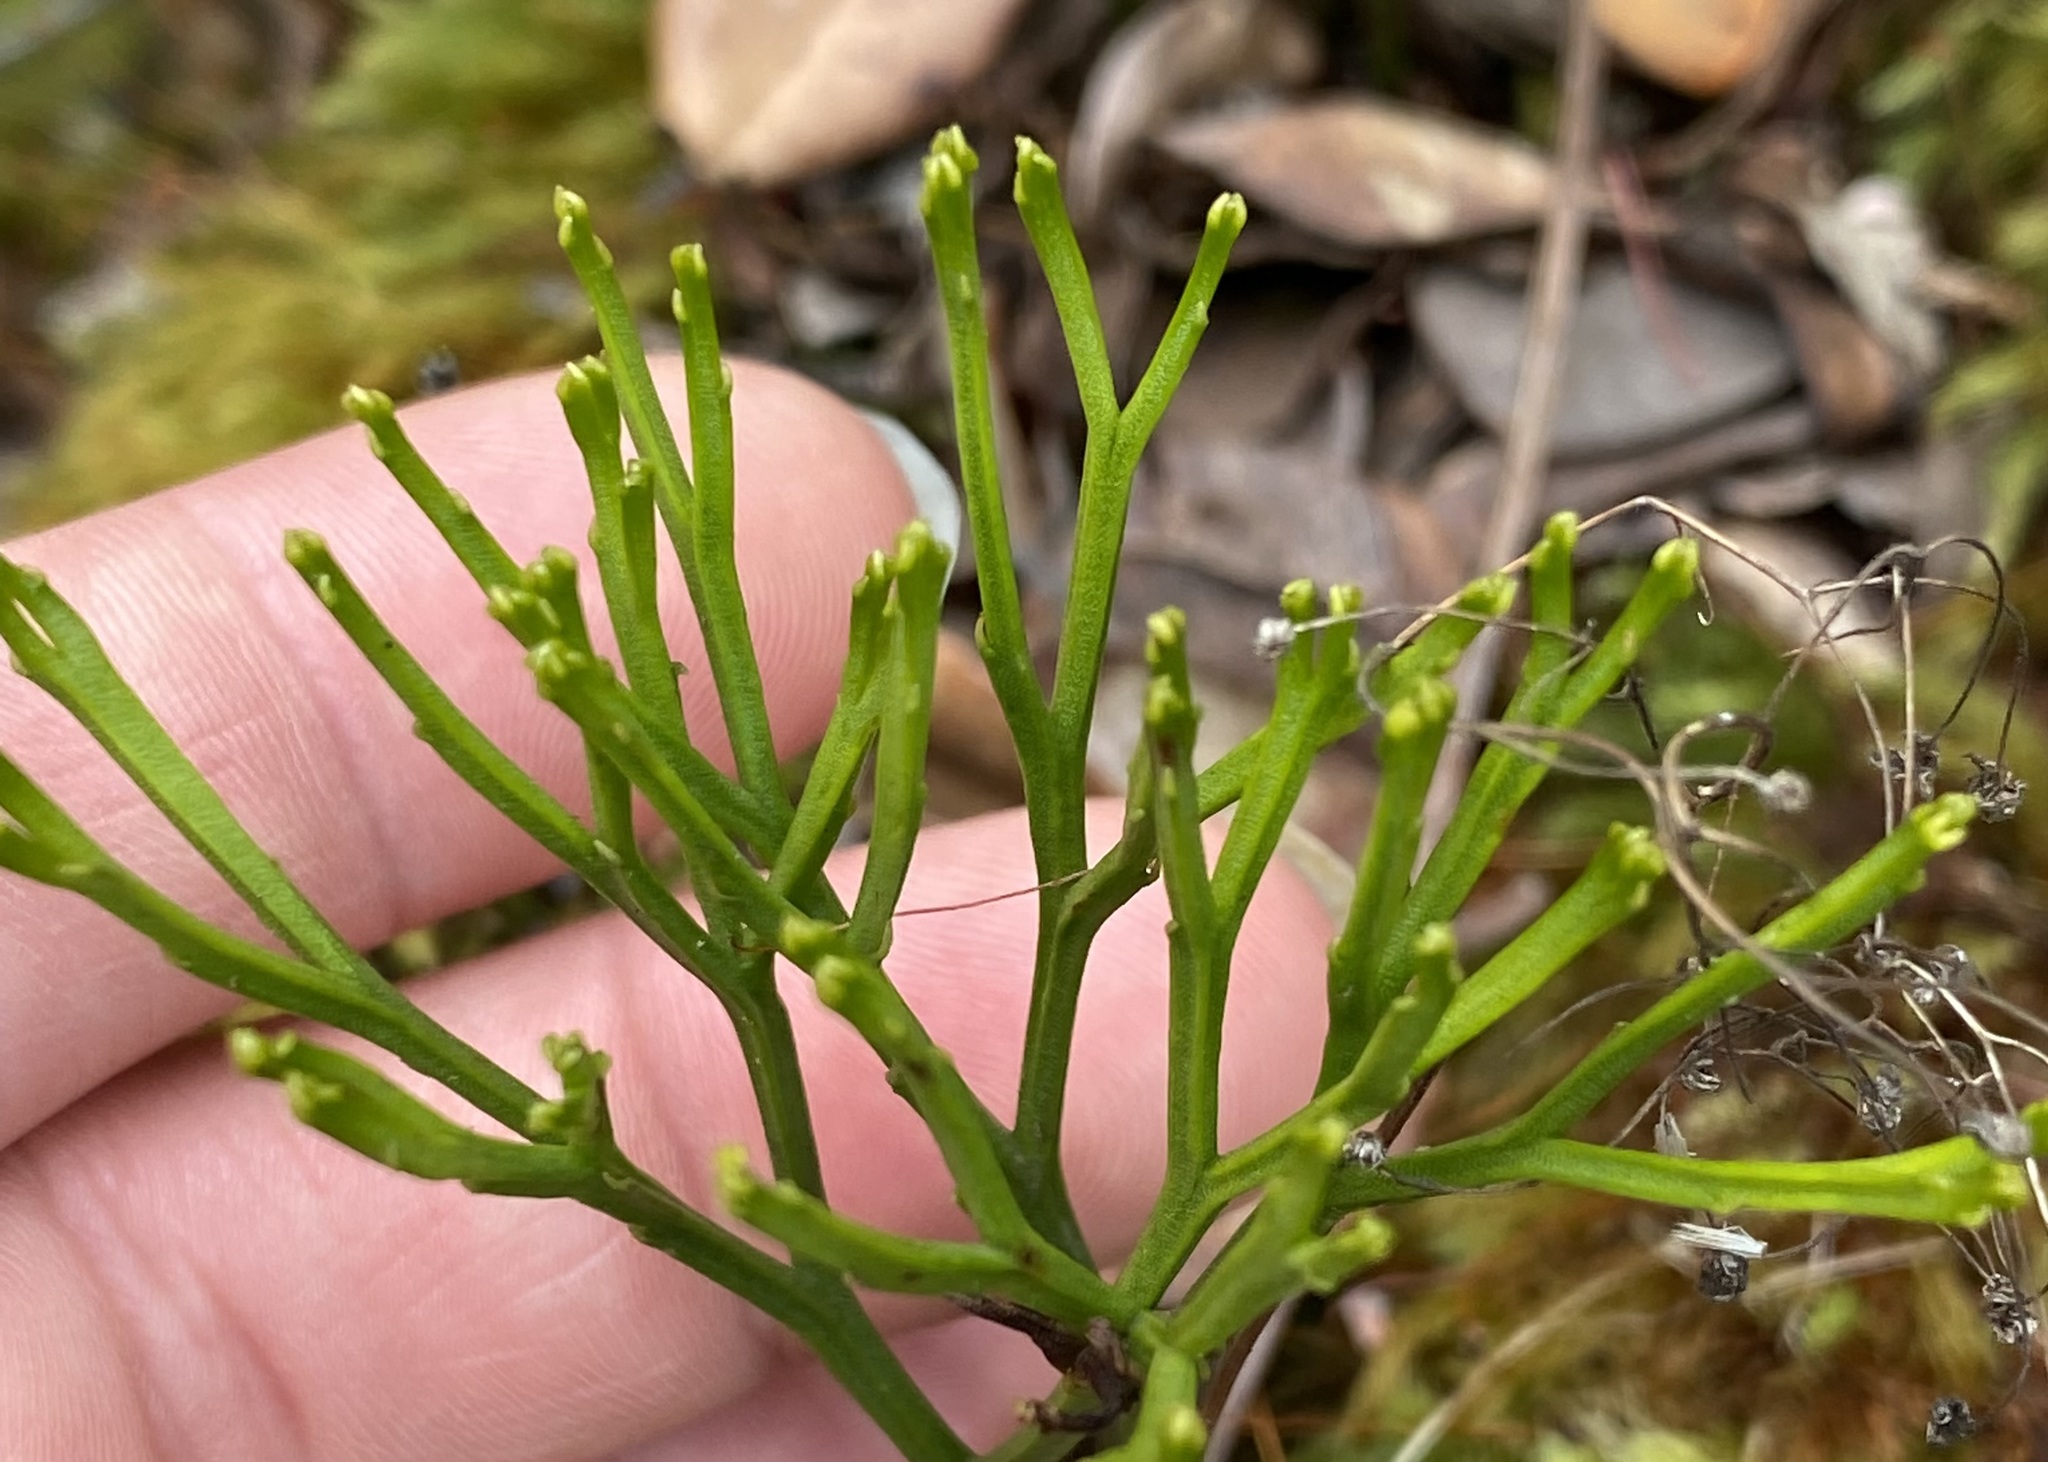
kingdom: Plantae
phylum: Tracheophyta
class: Polypodiopsida
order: Psilotales
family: Psilotaceae
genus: Psilotum
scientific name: Psilotum nudum
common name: Skeleton fork fern
